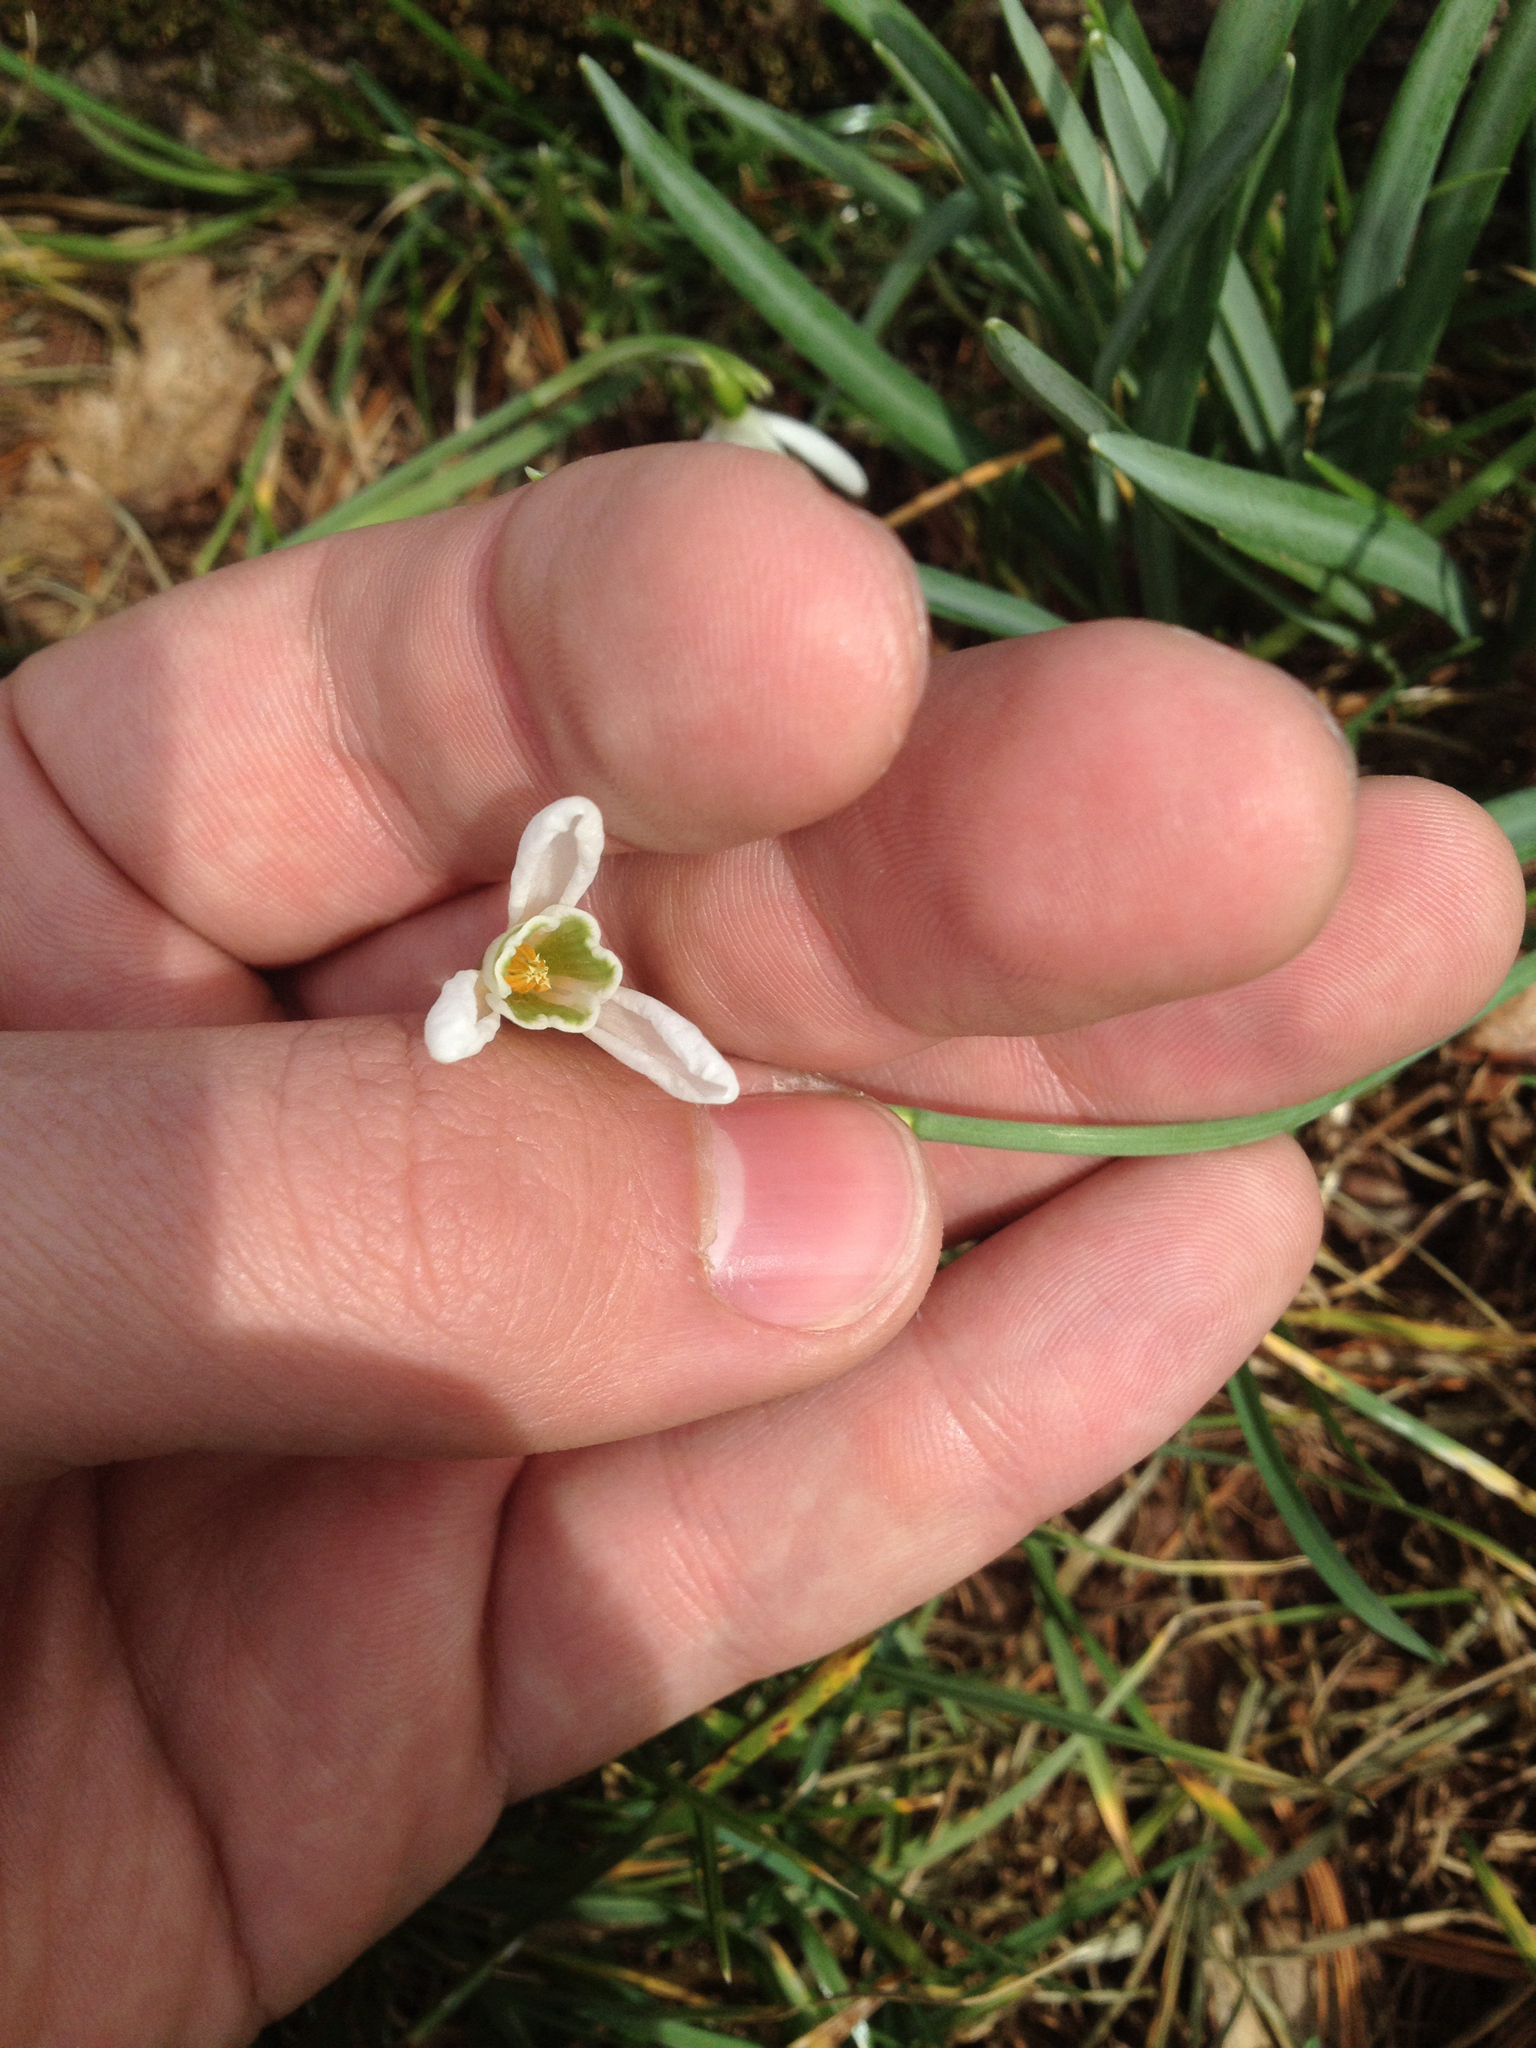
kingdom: Plantae
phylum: Tracheophyta
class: Liliopsida
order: Asparagales
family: Amaryllidaceae
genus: Galanthus
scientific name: Galanthus nivalis
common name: Snowdrop
